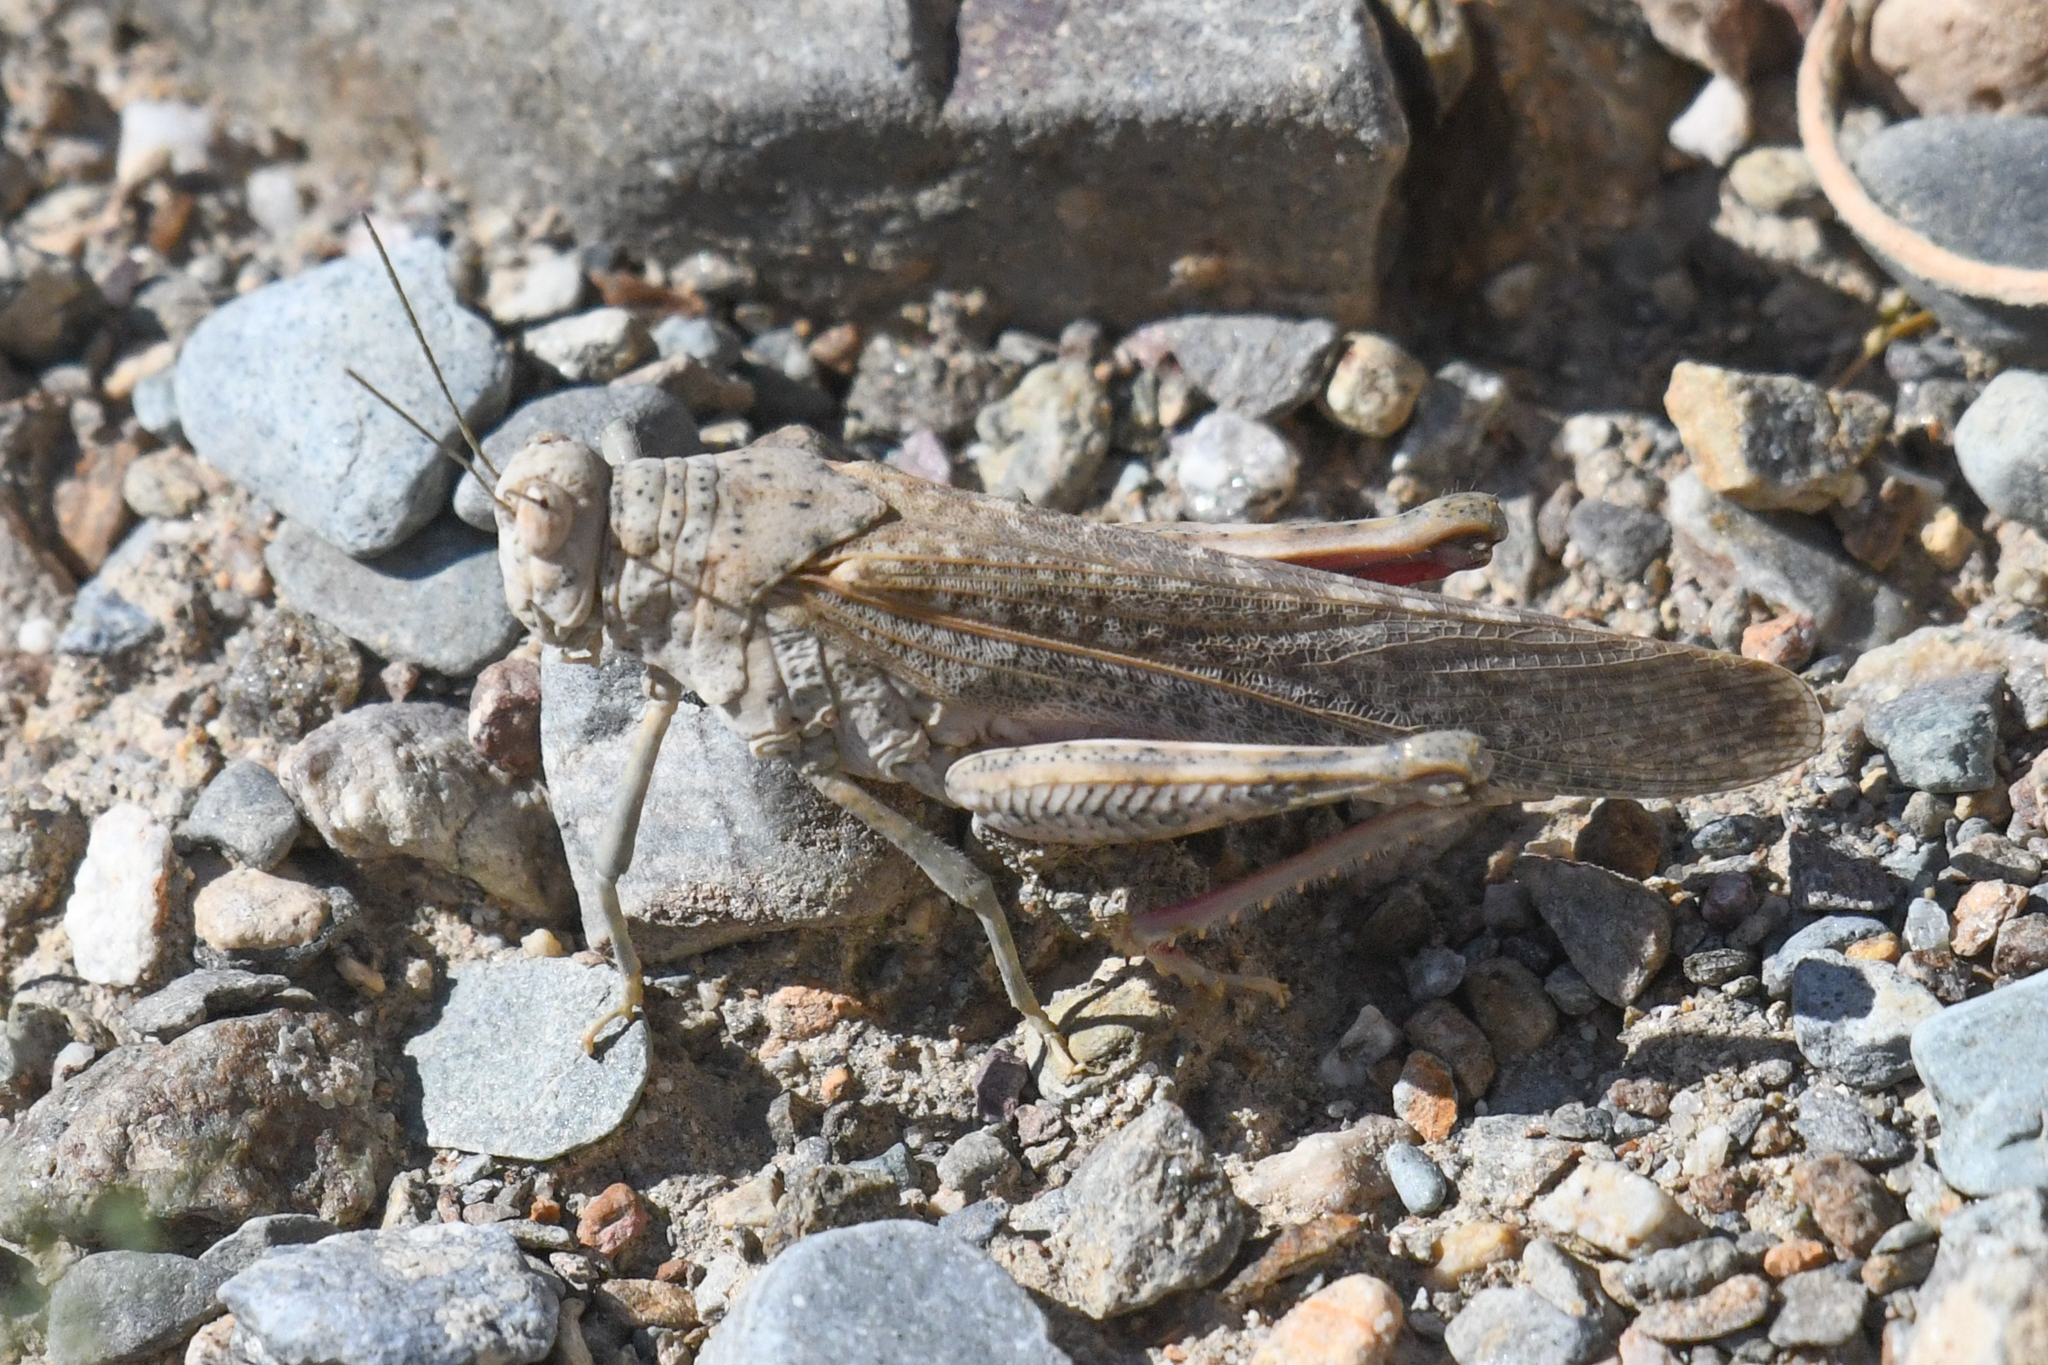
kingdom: Animalia
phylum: Arthropoda
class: Insecta
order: Orthoptera
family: Romaleidae
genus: Tytthotyle
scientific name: Tytthotyle maculata
